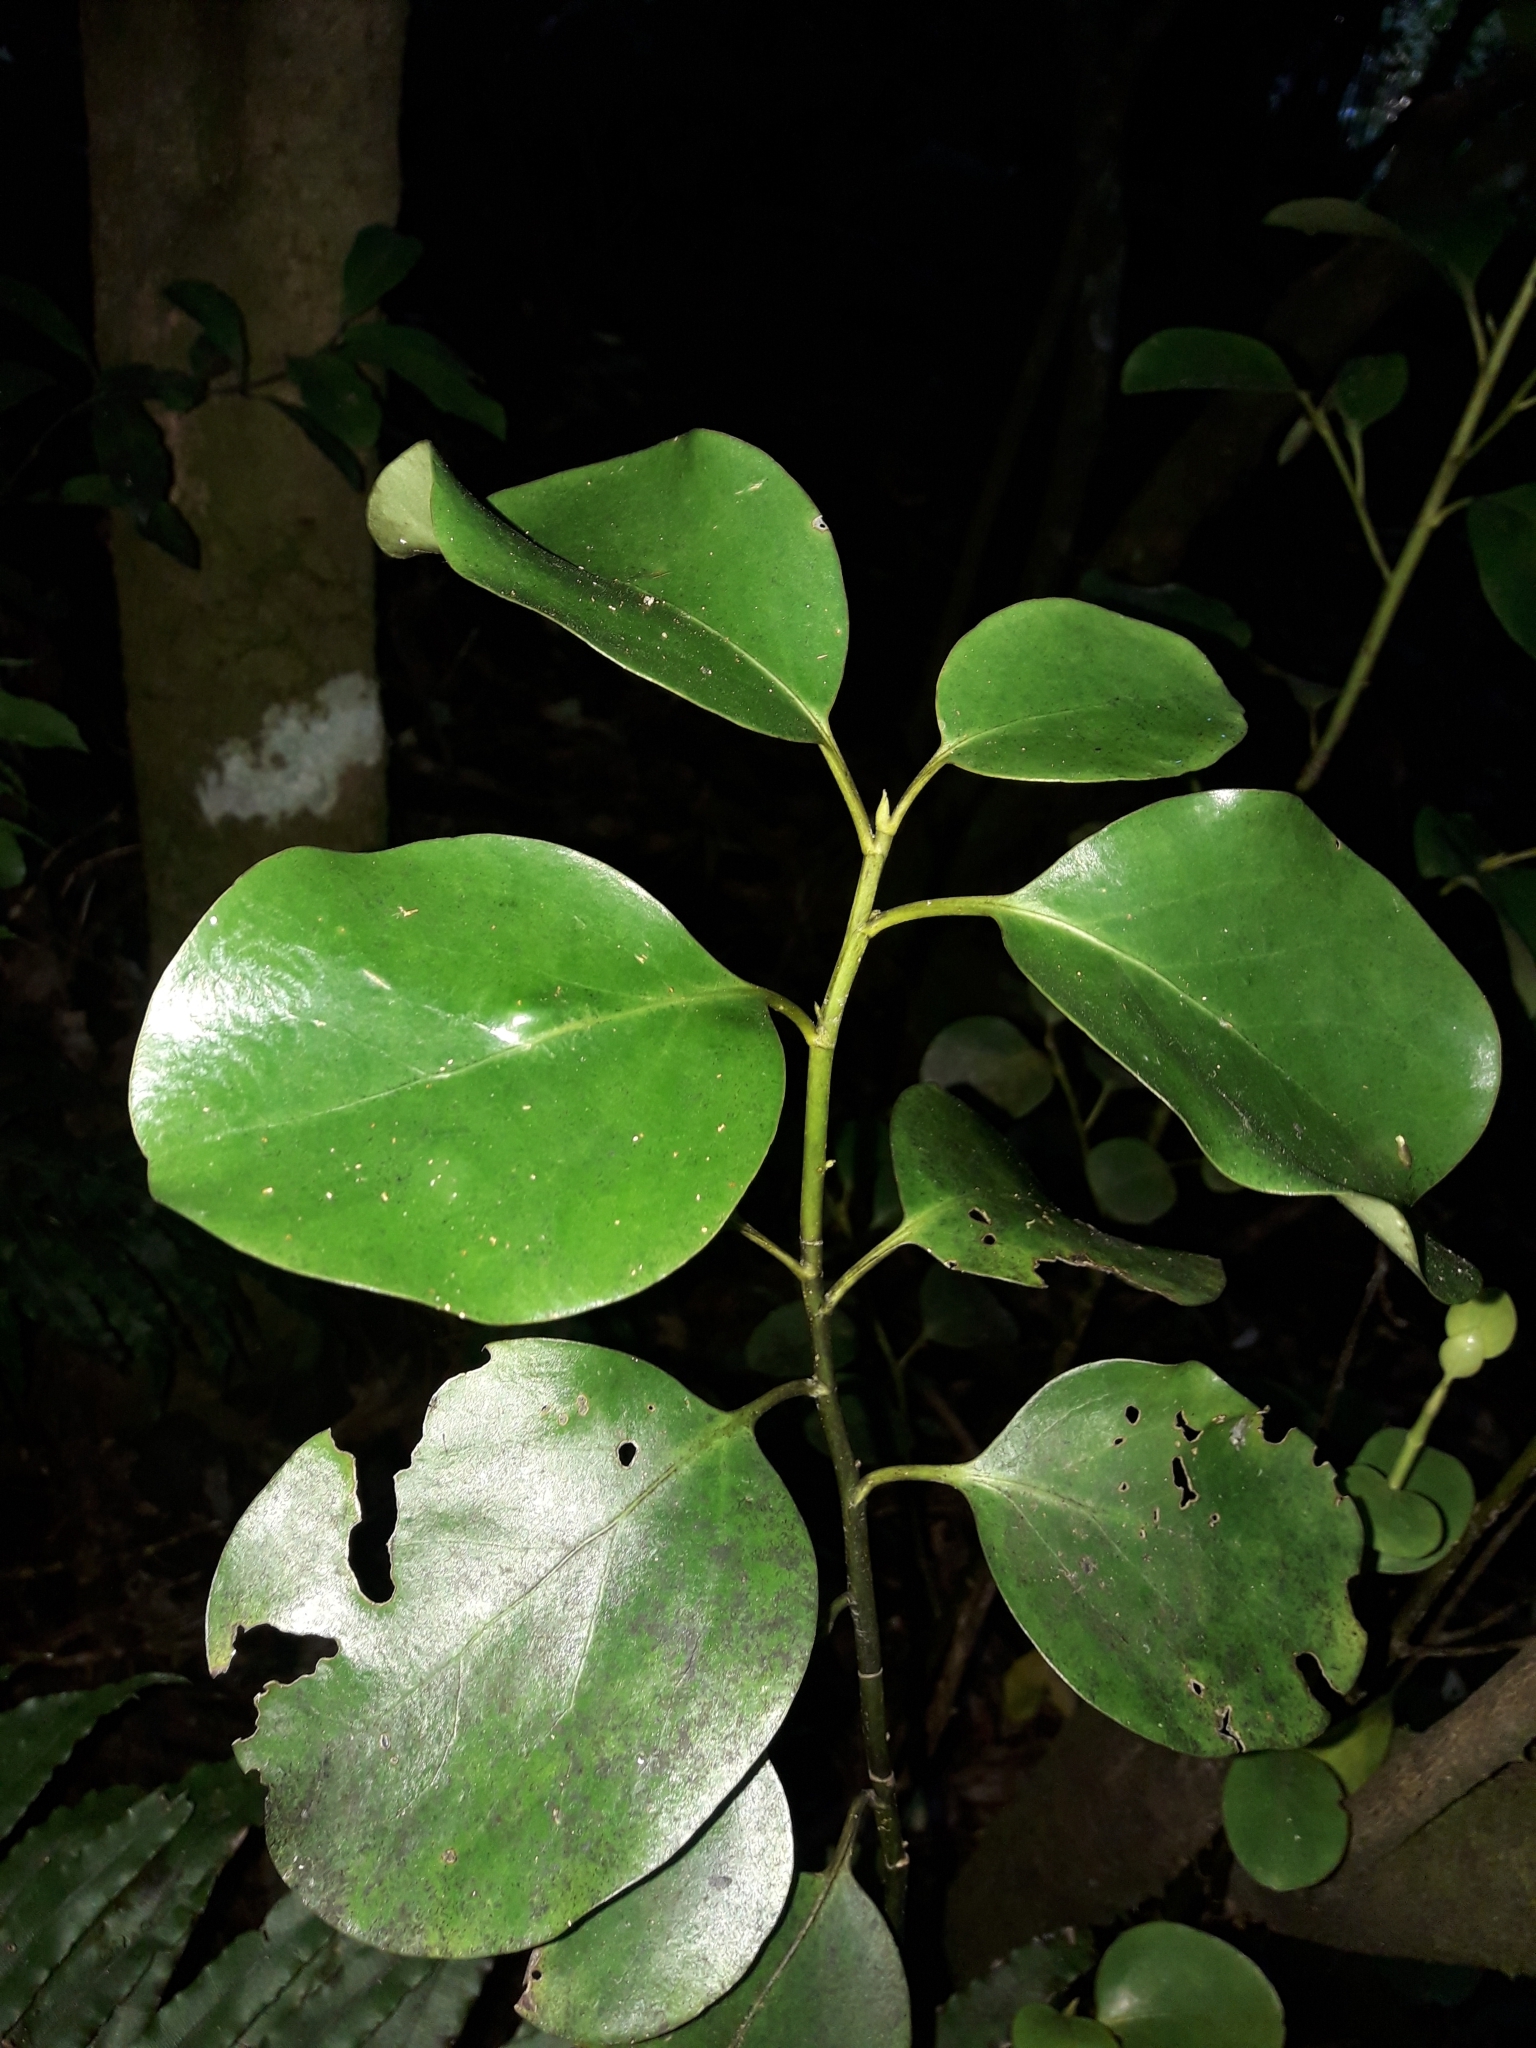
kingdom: Plantae
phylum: Tracheophyta
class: Magnoliopsida
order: Apiales
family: Griseliniaceae
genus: Griselinia
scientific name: Griselinia littoralis
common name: New zealand broadleaf
